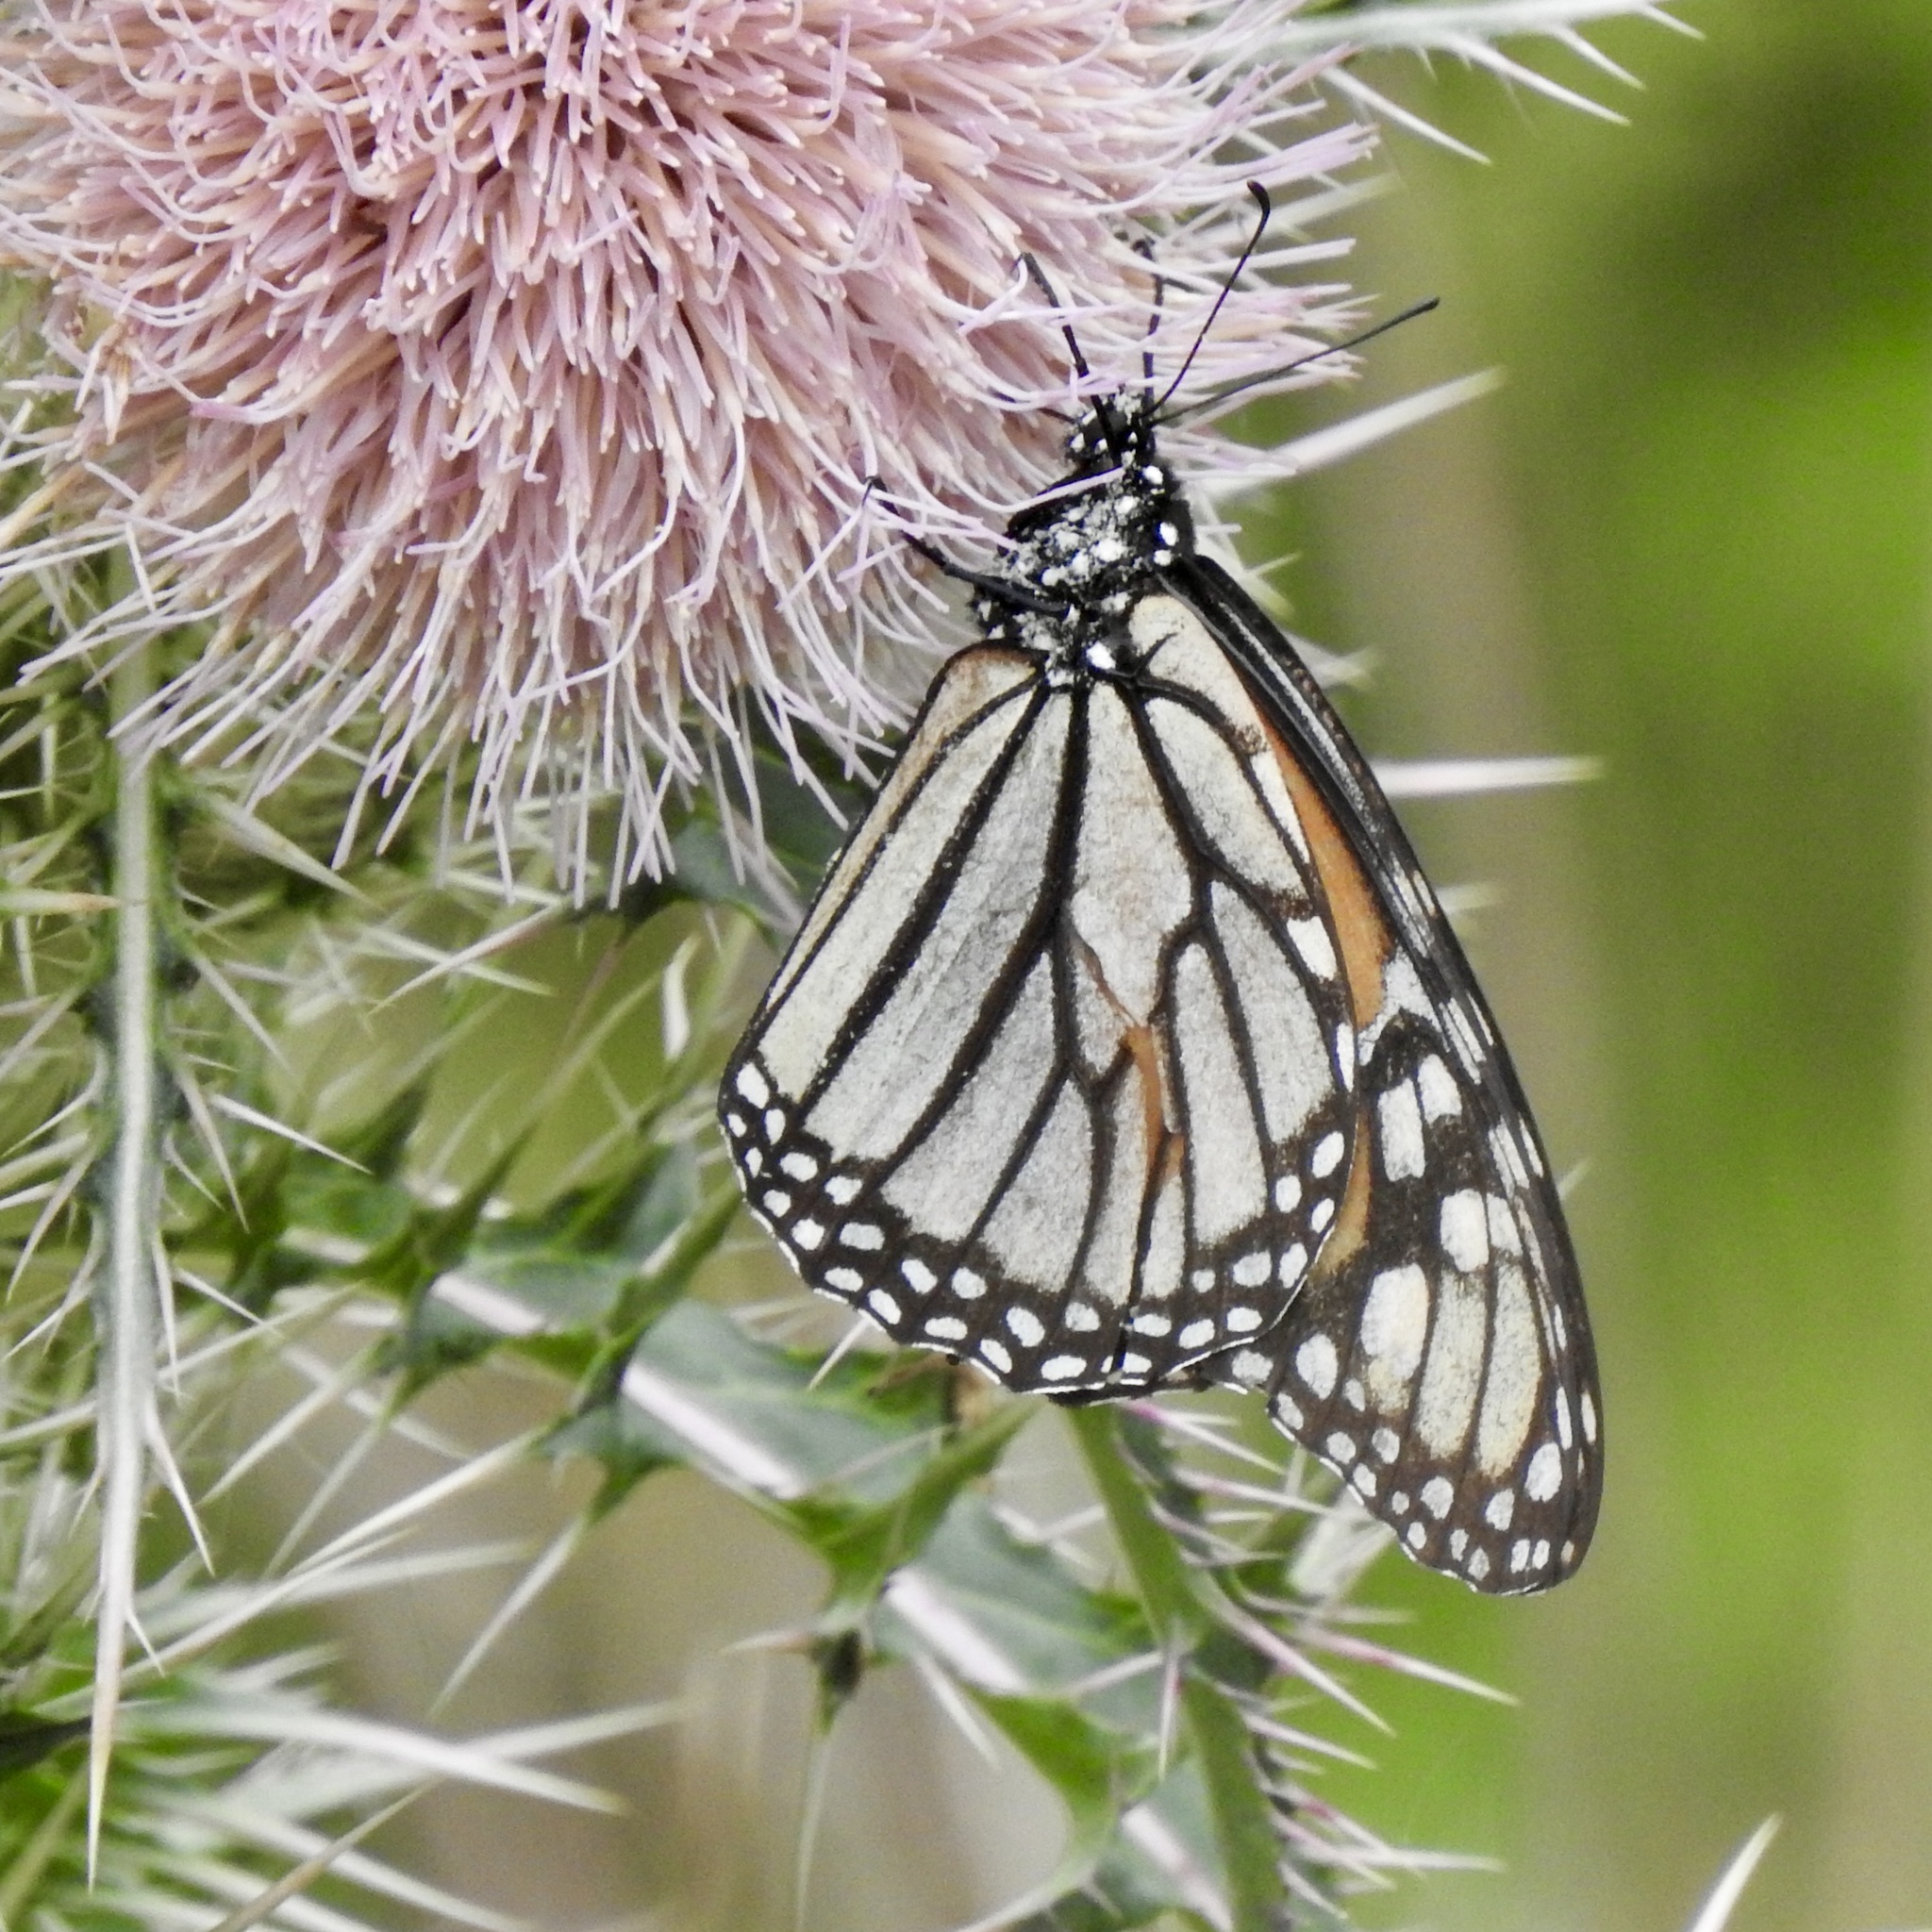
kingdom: Animalia
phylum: Arthropoda
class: Insecta
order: Lepidoptera
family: Nymphalidae
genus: Danaus
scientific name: Danaus plexippus
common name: Monarch
